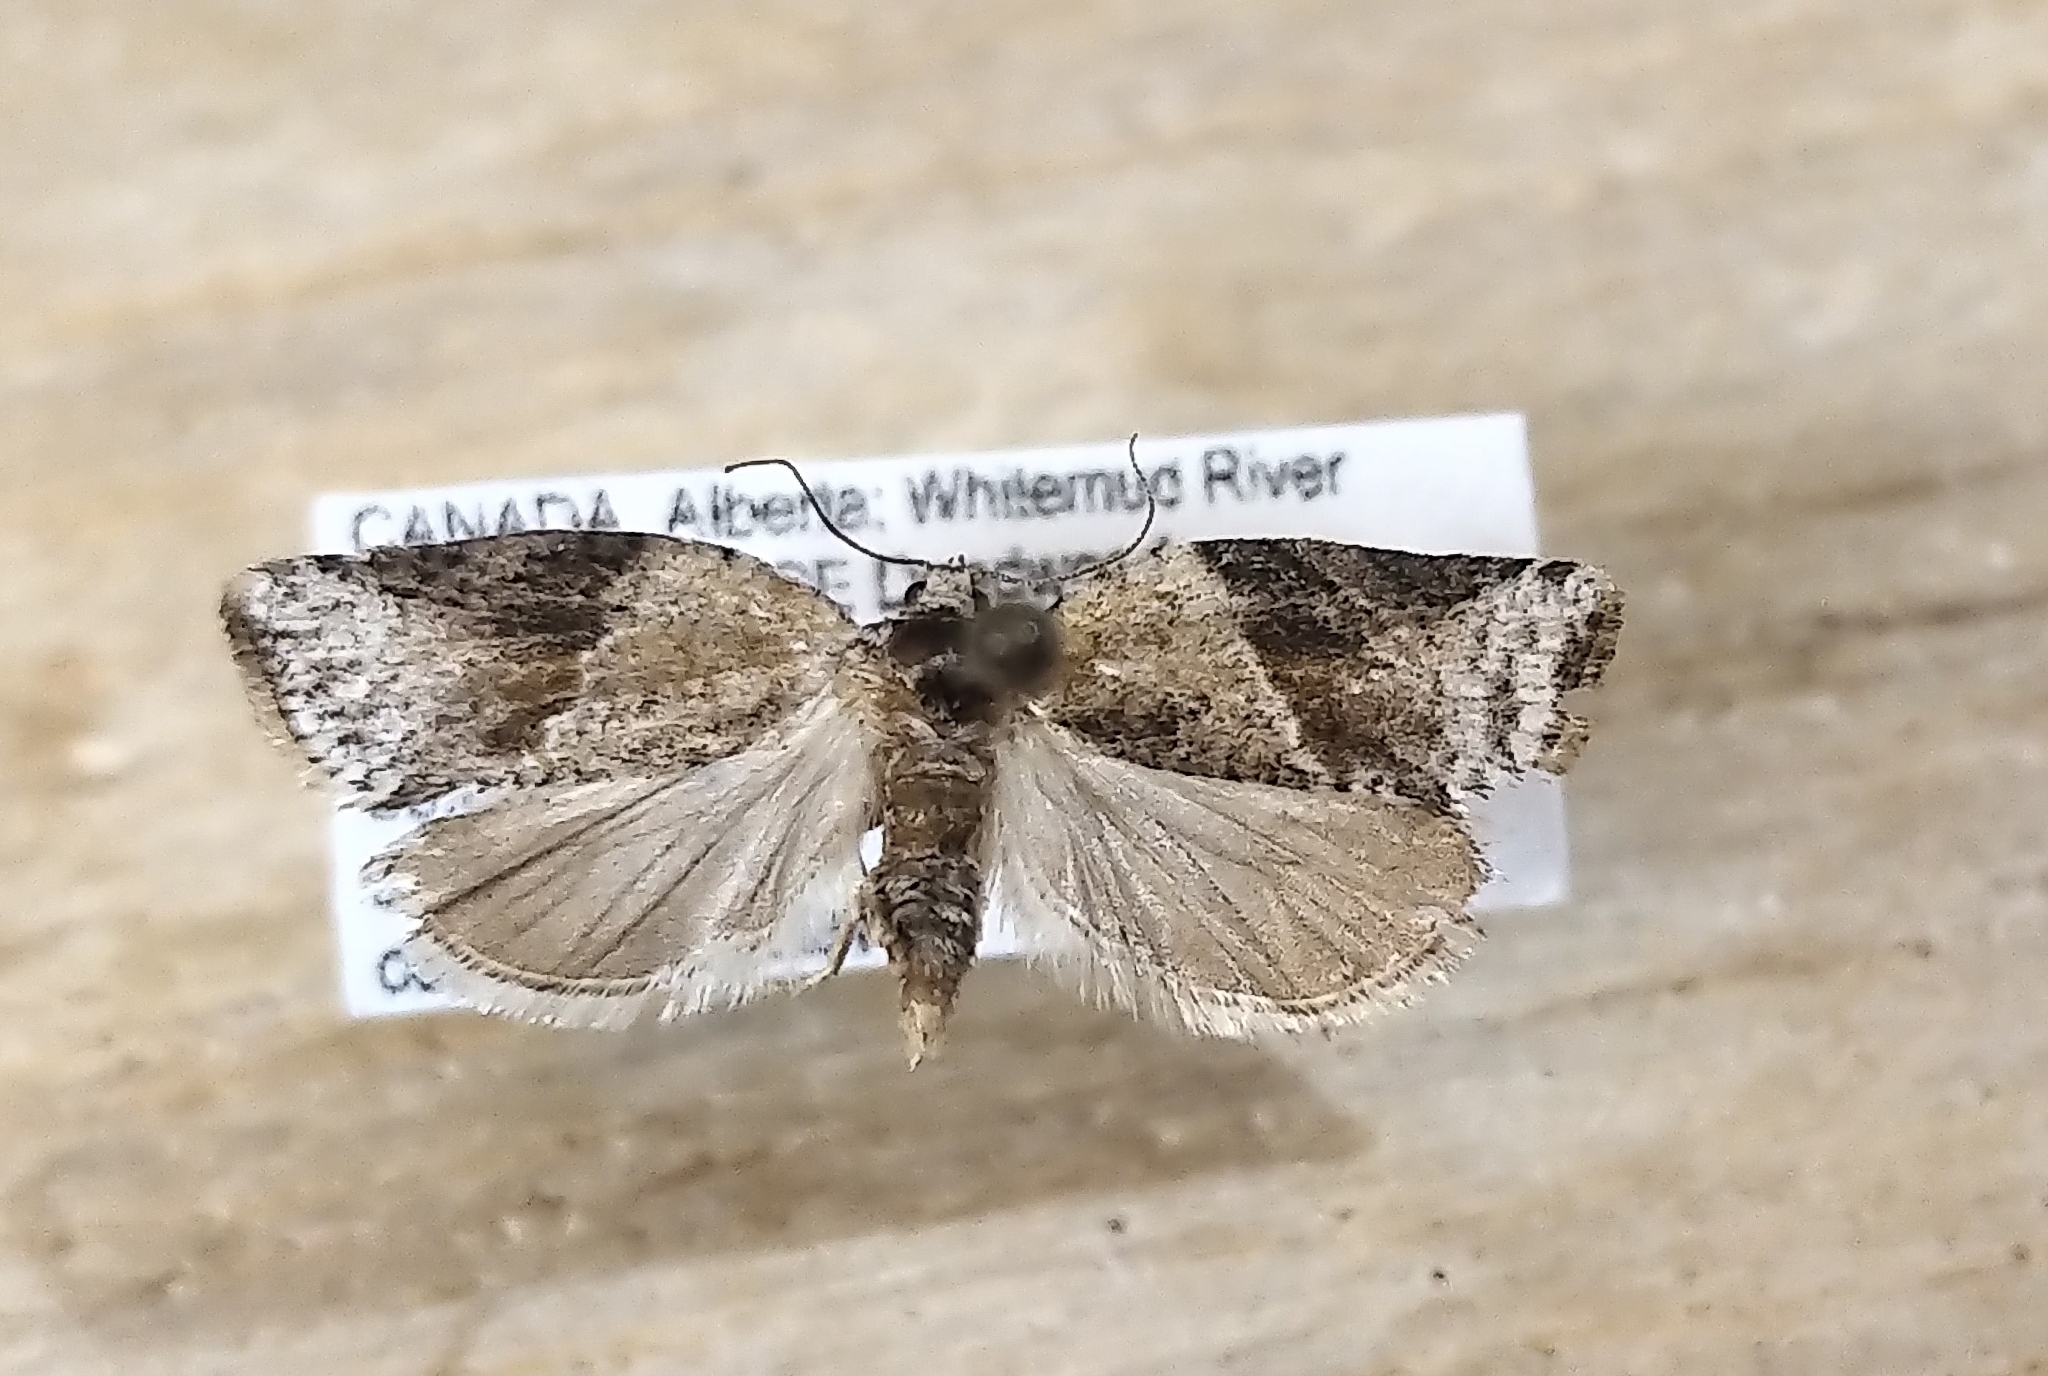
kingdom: Animalia
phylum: Arthropoda
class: Insecta
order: Lepidoptera
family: Tortricidae
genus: Argyrotaenia
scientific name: Argyrotaenia mariana
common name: Gray-banded leafroller moth
